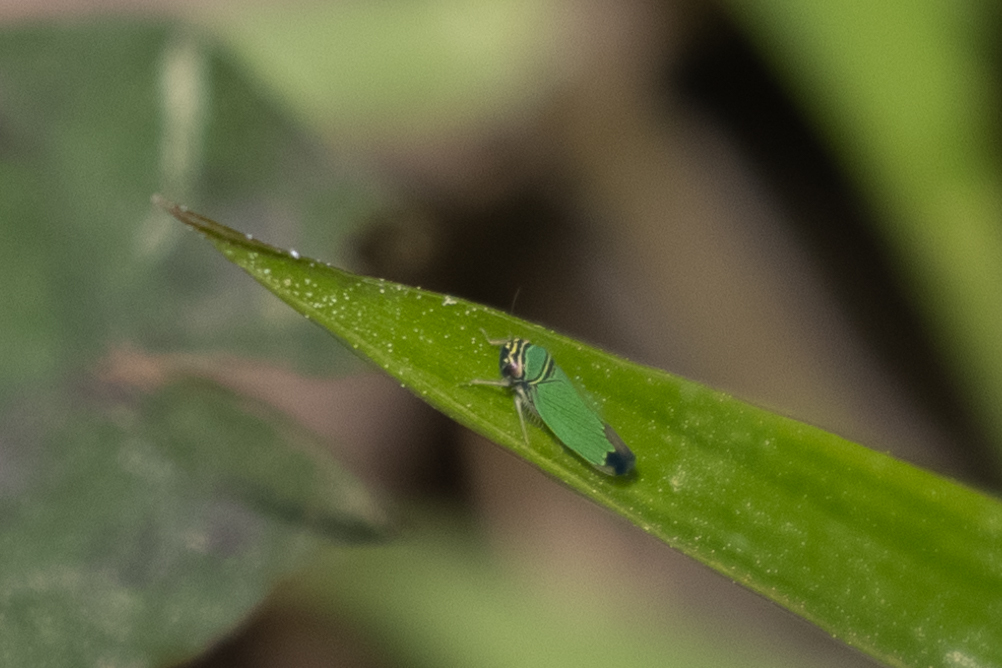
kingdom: Animalia
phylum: Arthropoda
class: Insecta
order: Hemiptera
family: Cicadellidae
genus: Tylozygus
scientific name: Tylozygus geometricus
